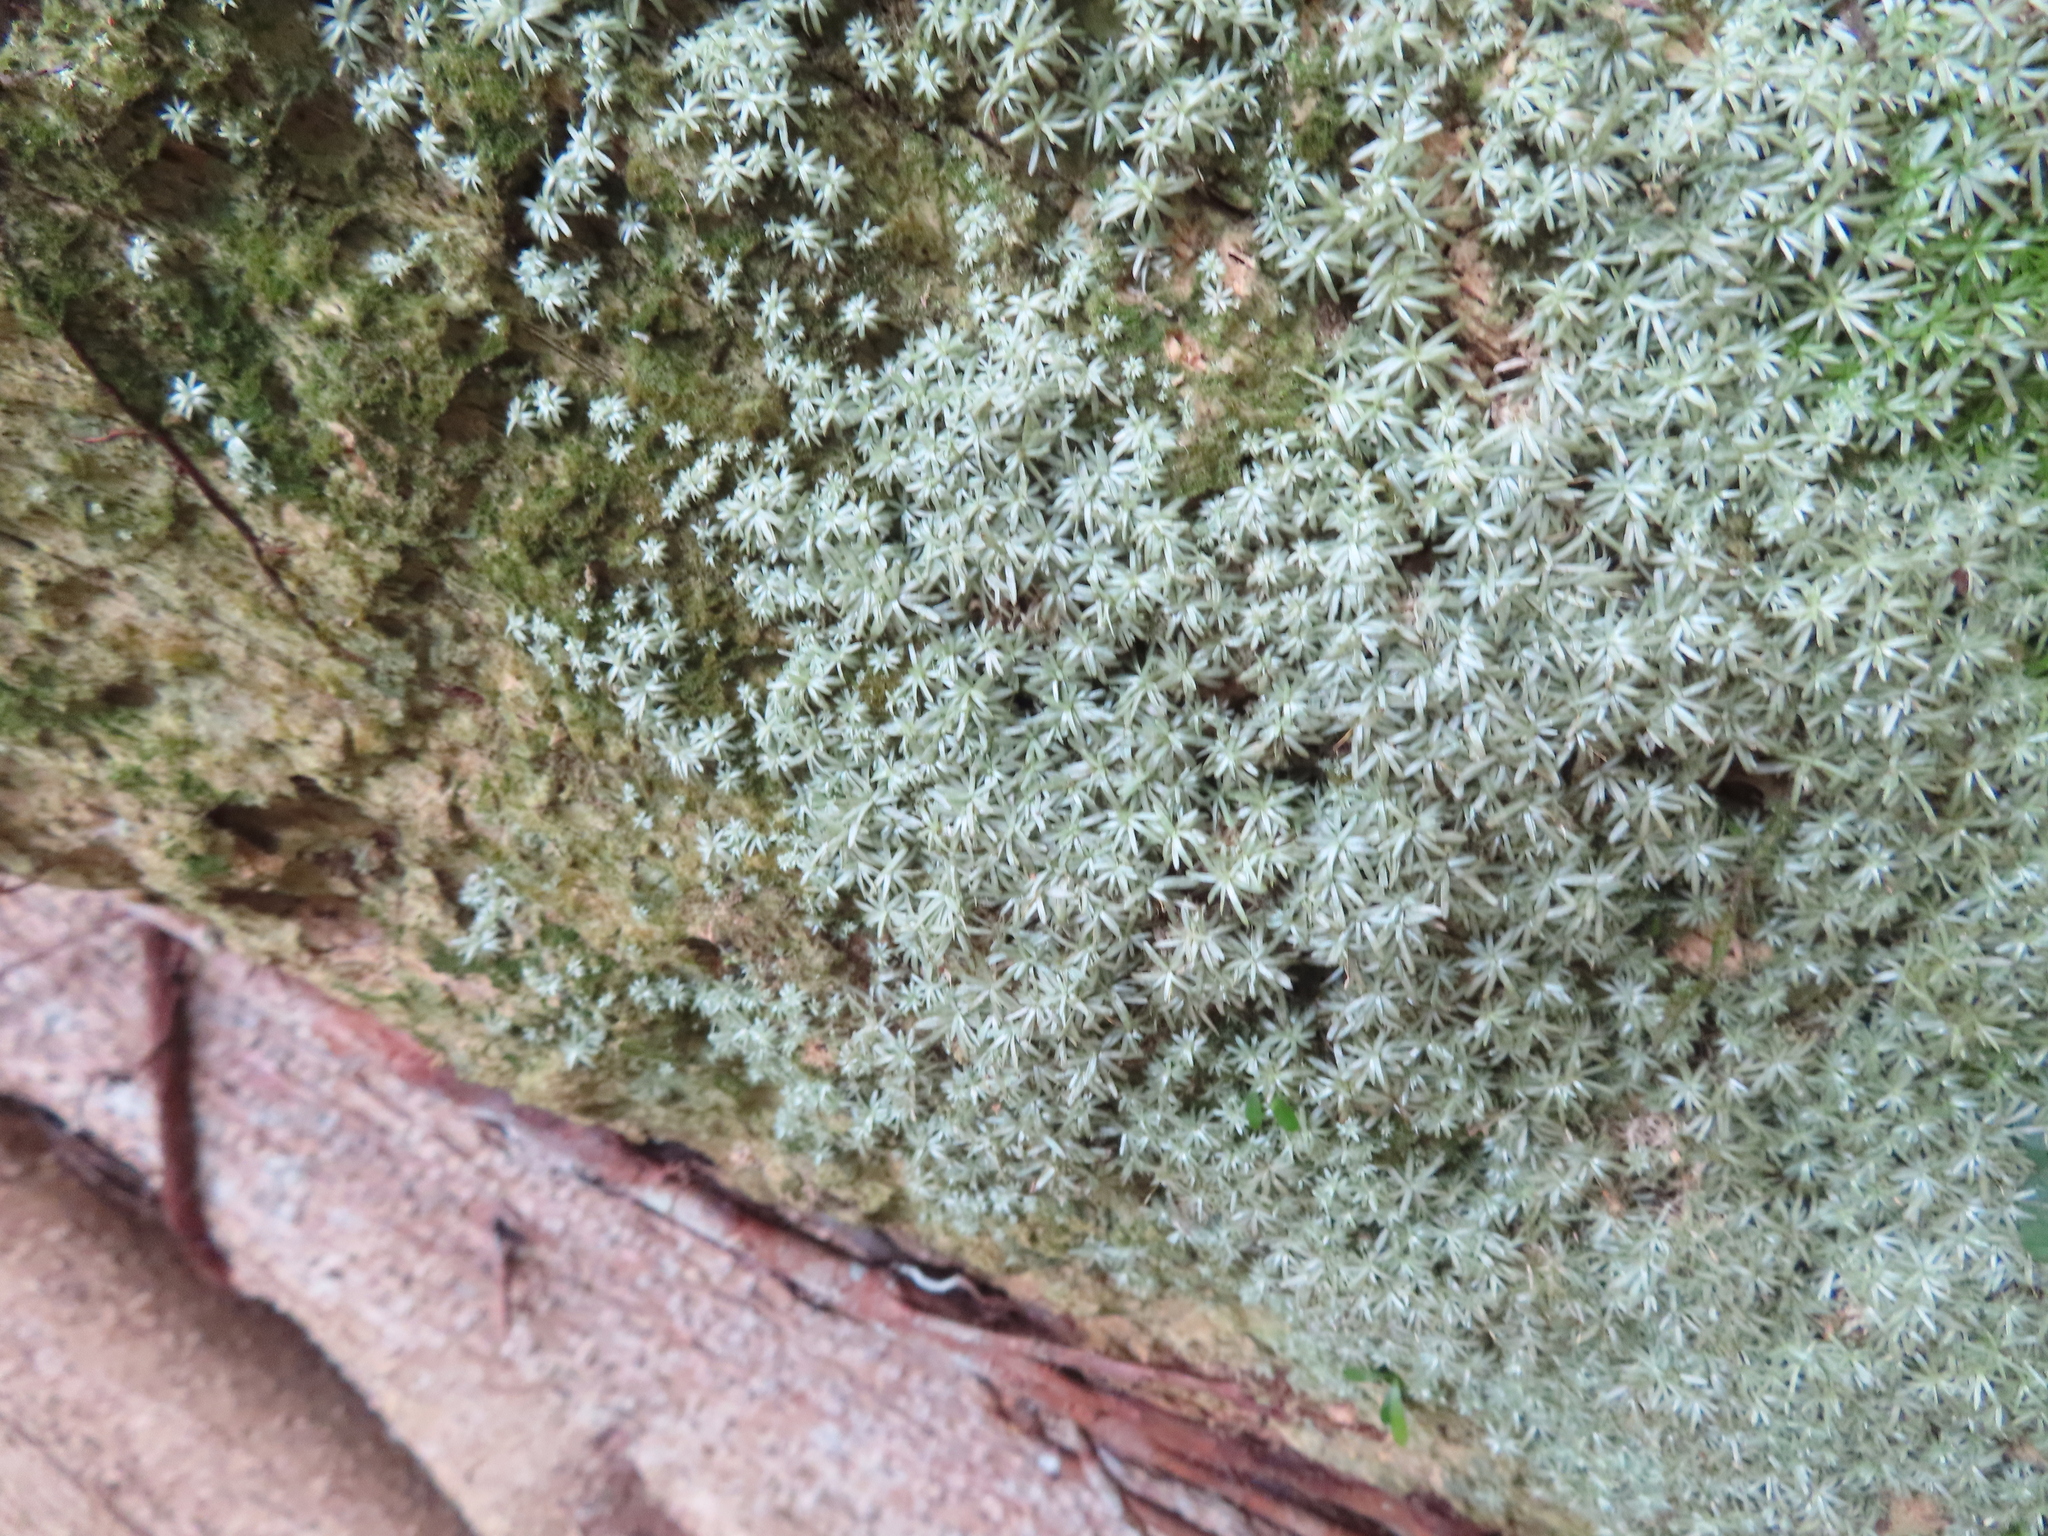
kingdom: Plantae
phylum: Bryophyta
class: Bryopsida
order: Dicranales
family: Octoblepharaceae
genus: Octoblepharum
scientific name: Octoblepharum albidum
